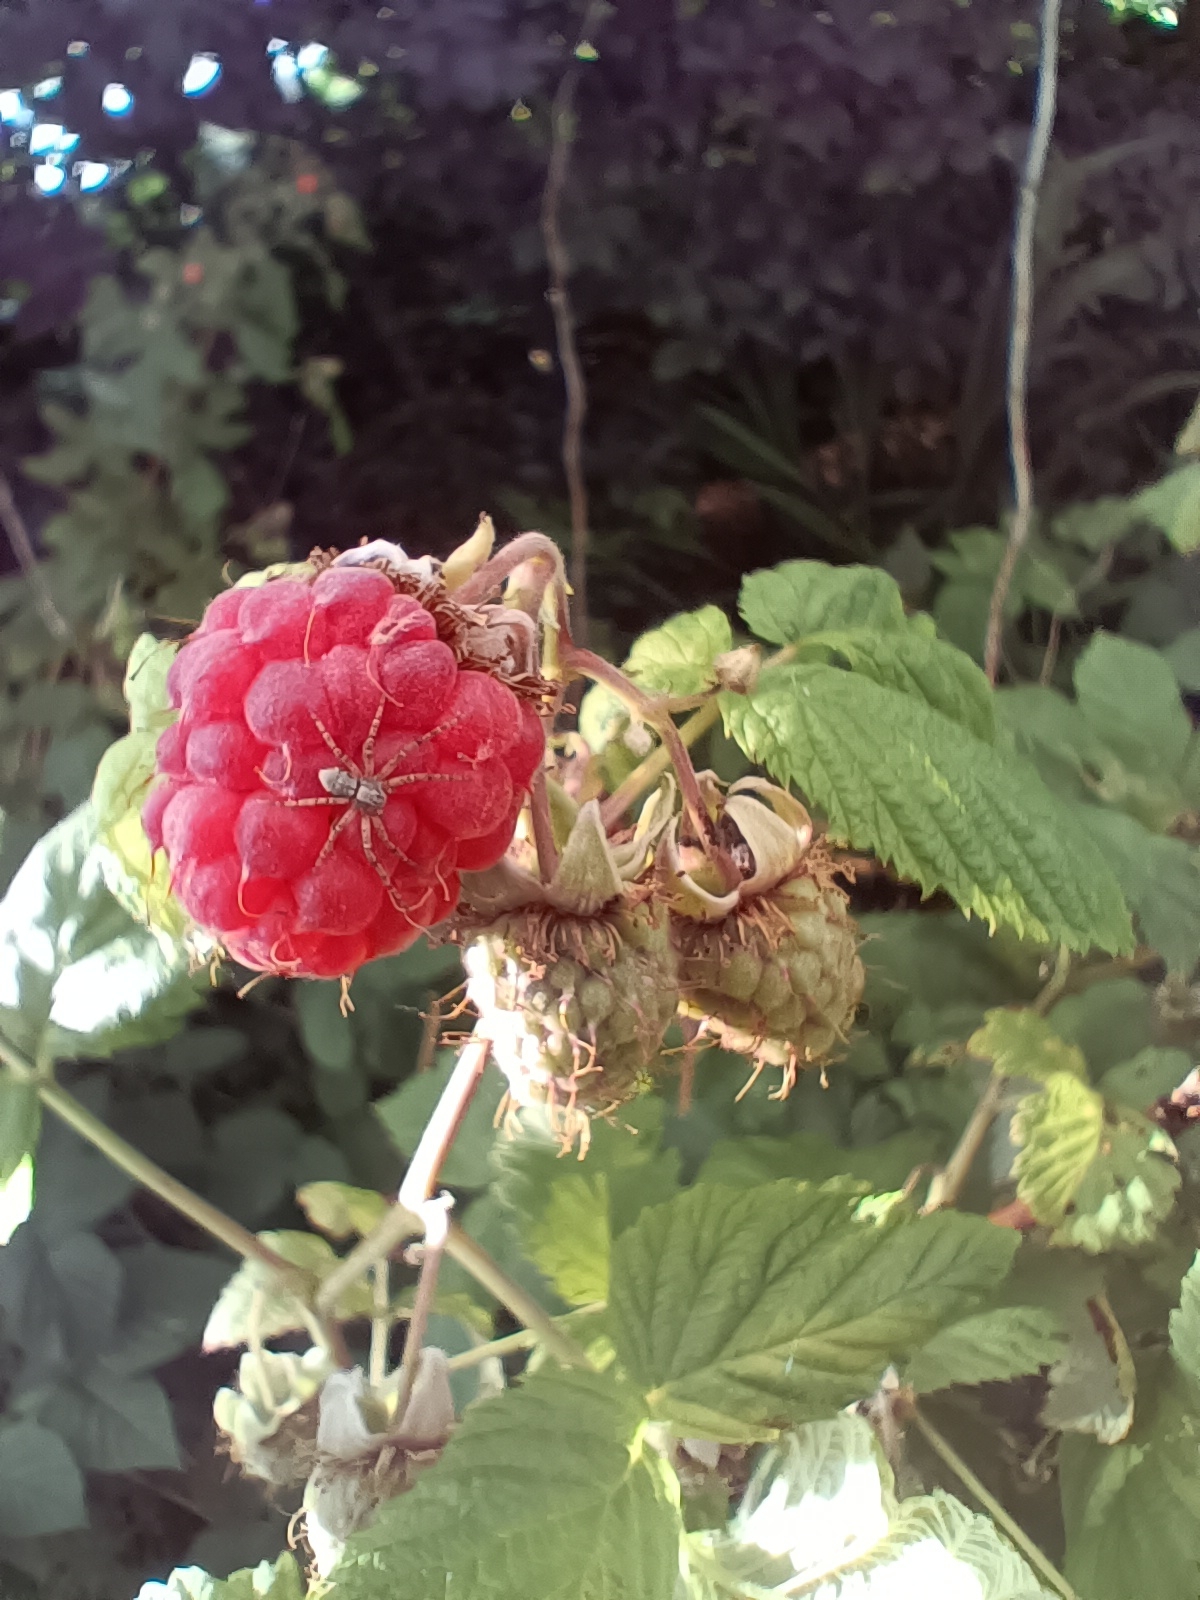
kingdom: Animalia
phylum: Arthropoda
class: Arachnida
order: Araneae
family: Philodromidae
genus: Philodromus
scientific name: Philodromus
